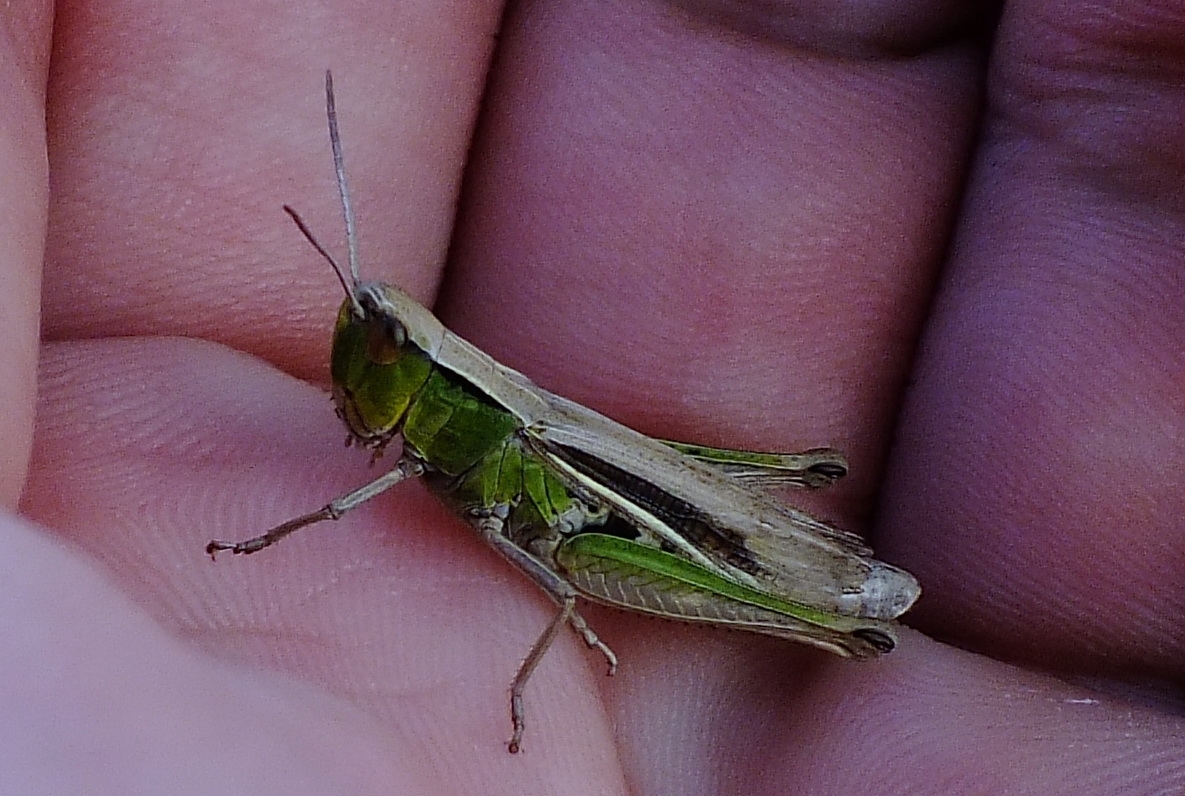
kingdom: Animalia
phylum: Arthropoda
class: Insecta
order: Orthoptera
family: Acrididae
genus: Chorthippus
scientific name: Chorthippus albomarginatus
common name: Lesser marsh grasshopper
